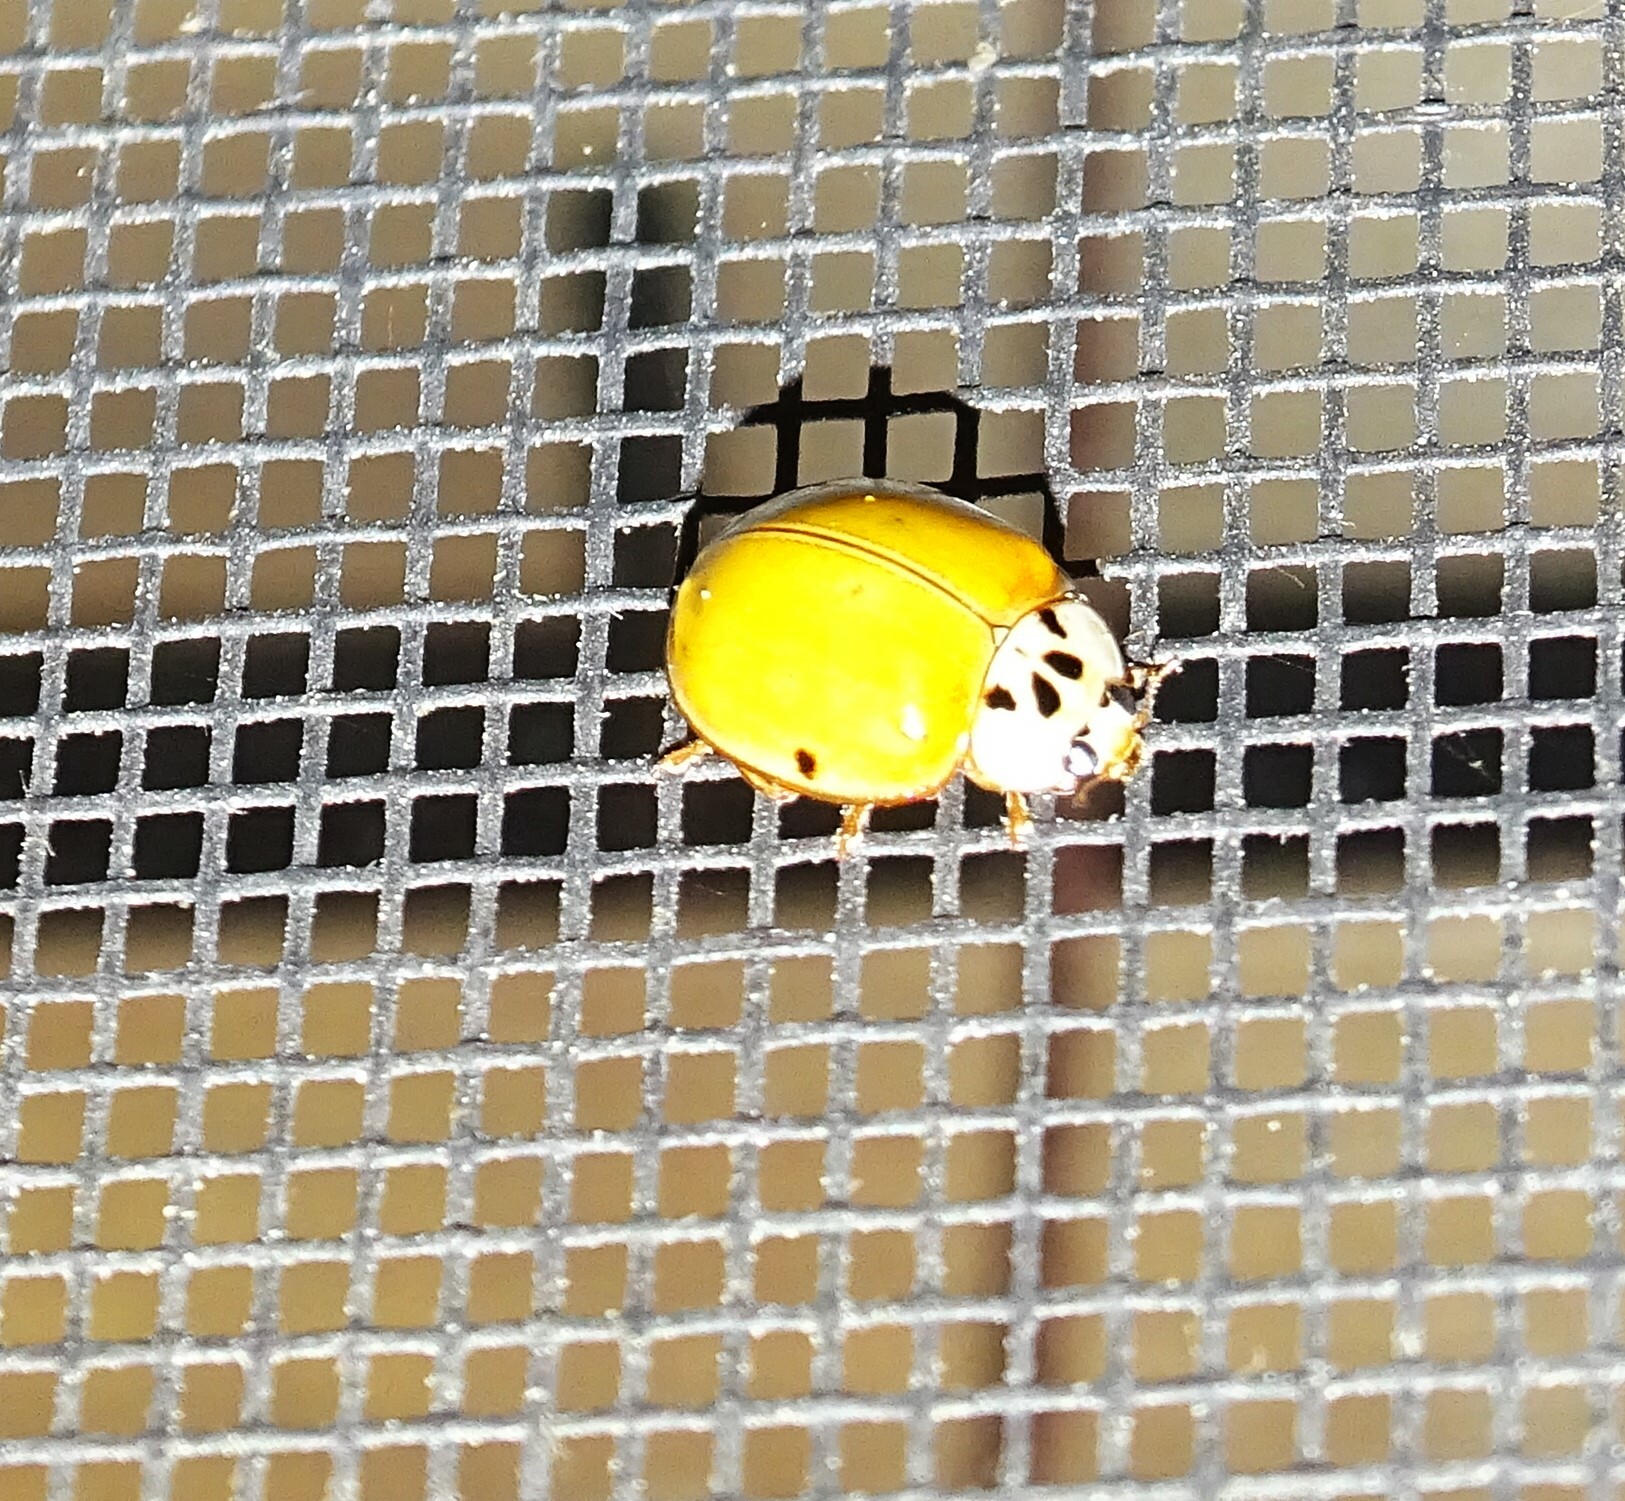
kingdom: Animalia
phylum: Arthropoda
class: Insecta
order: Coleoptera
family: Coccinellidae
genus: Harmonia
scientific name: Harmonia axyridis
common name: Harlequin ladybird
